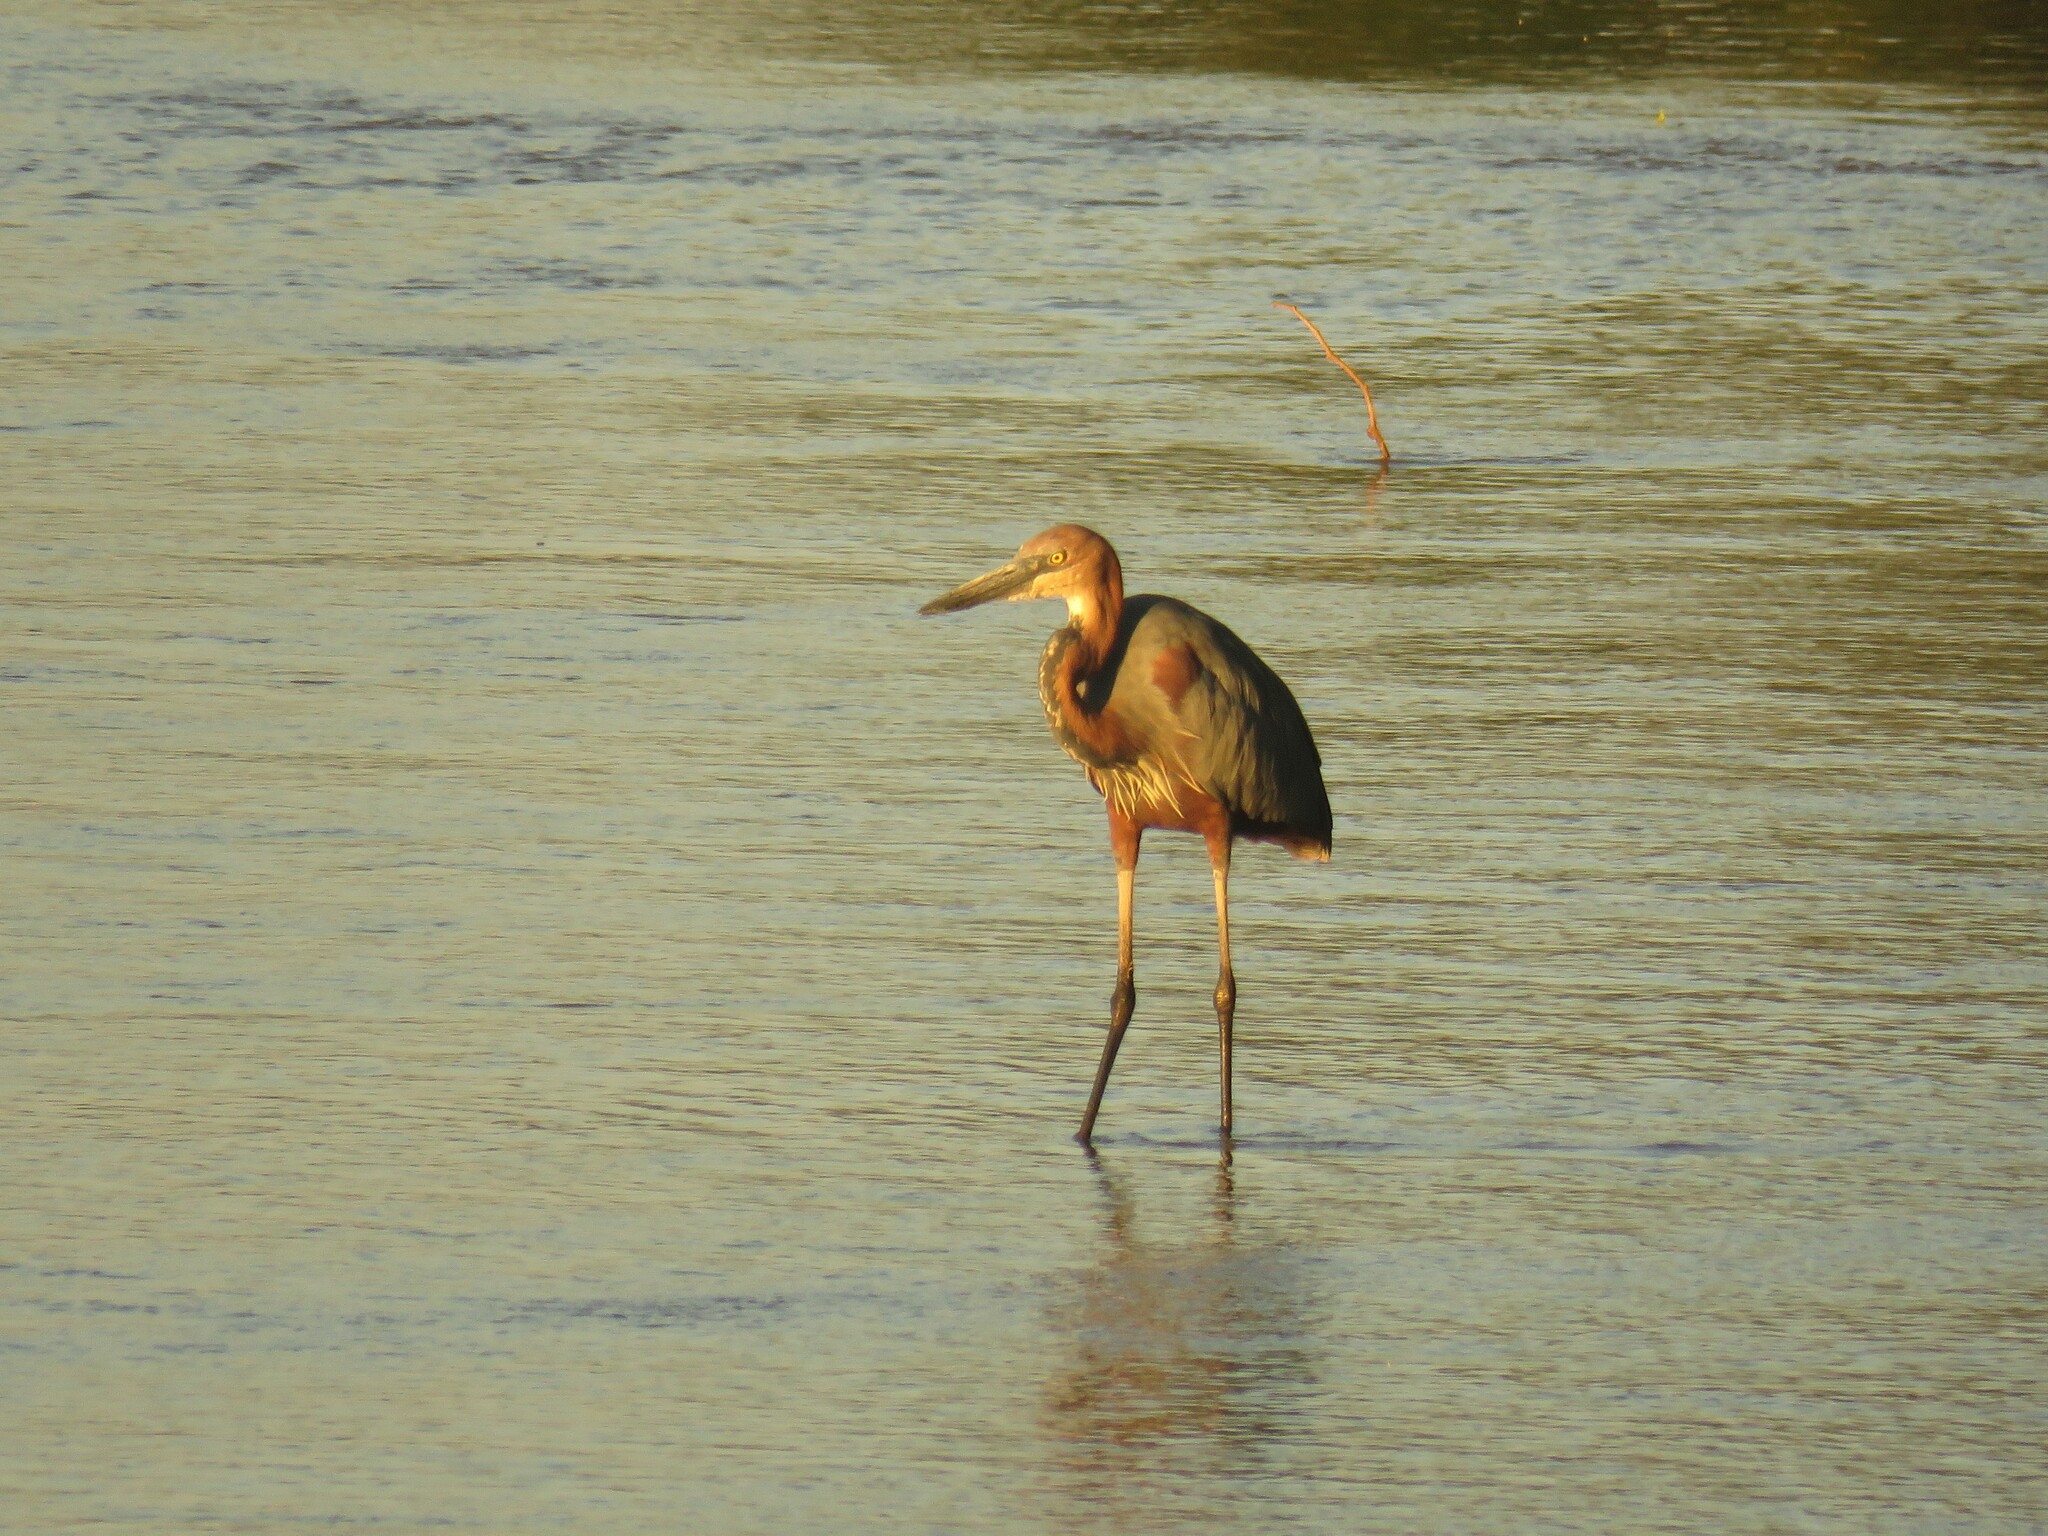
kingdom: Animalia
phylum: Chordata
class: Aves
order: Pelecaniformes
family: Ardeidae
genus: Ardea
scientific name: Ardea goliath
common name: Goliath heron
